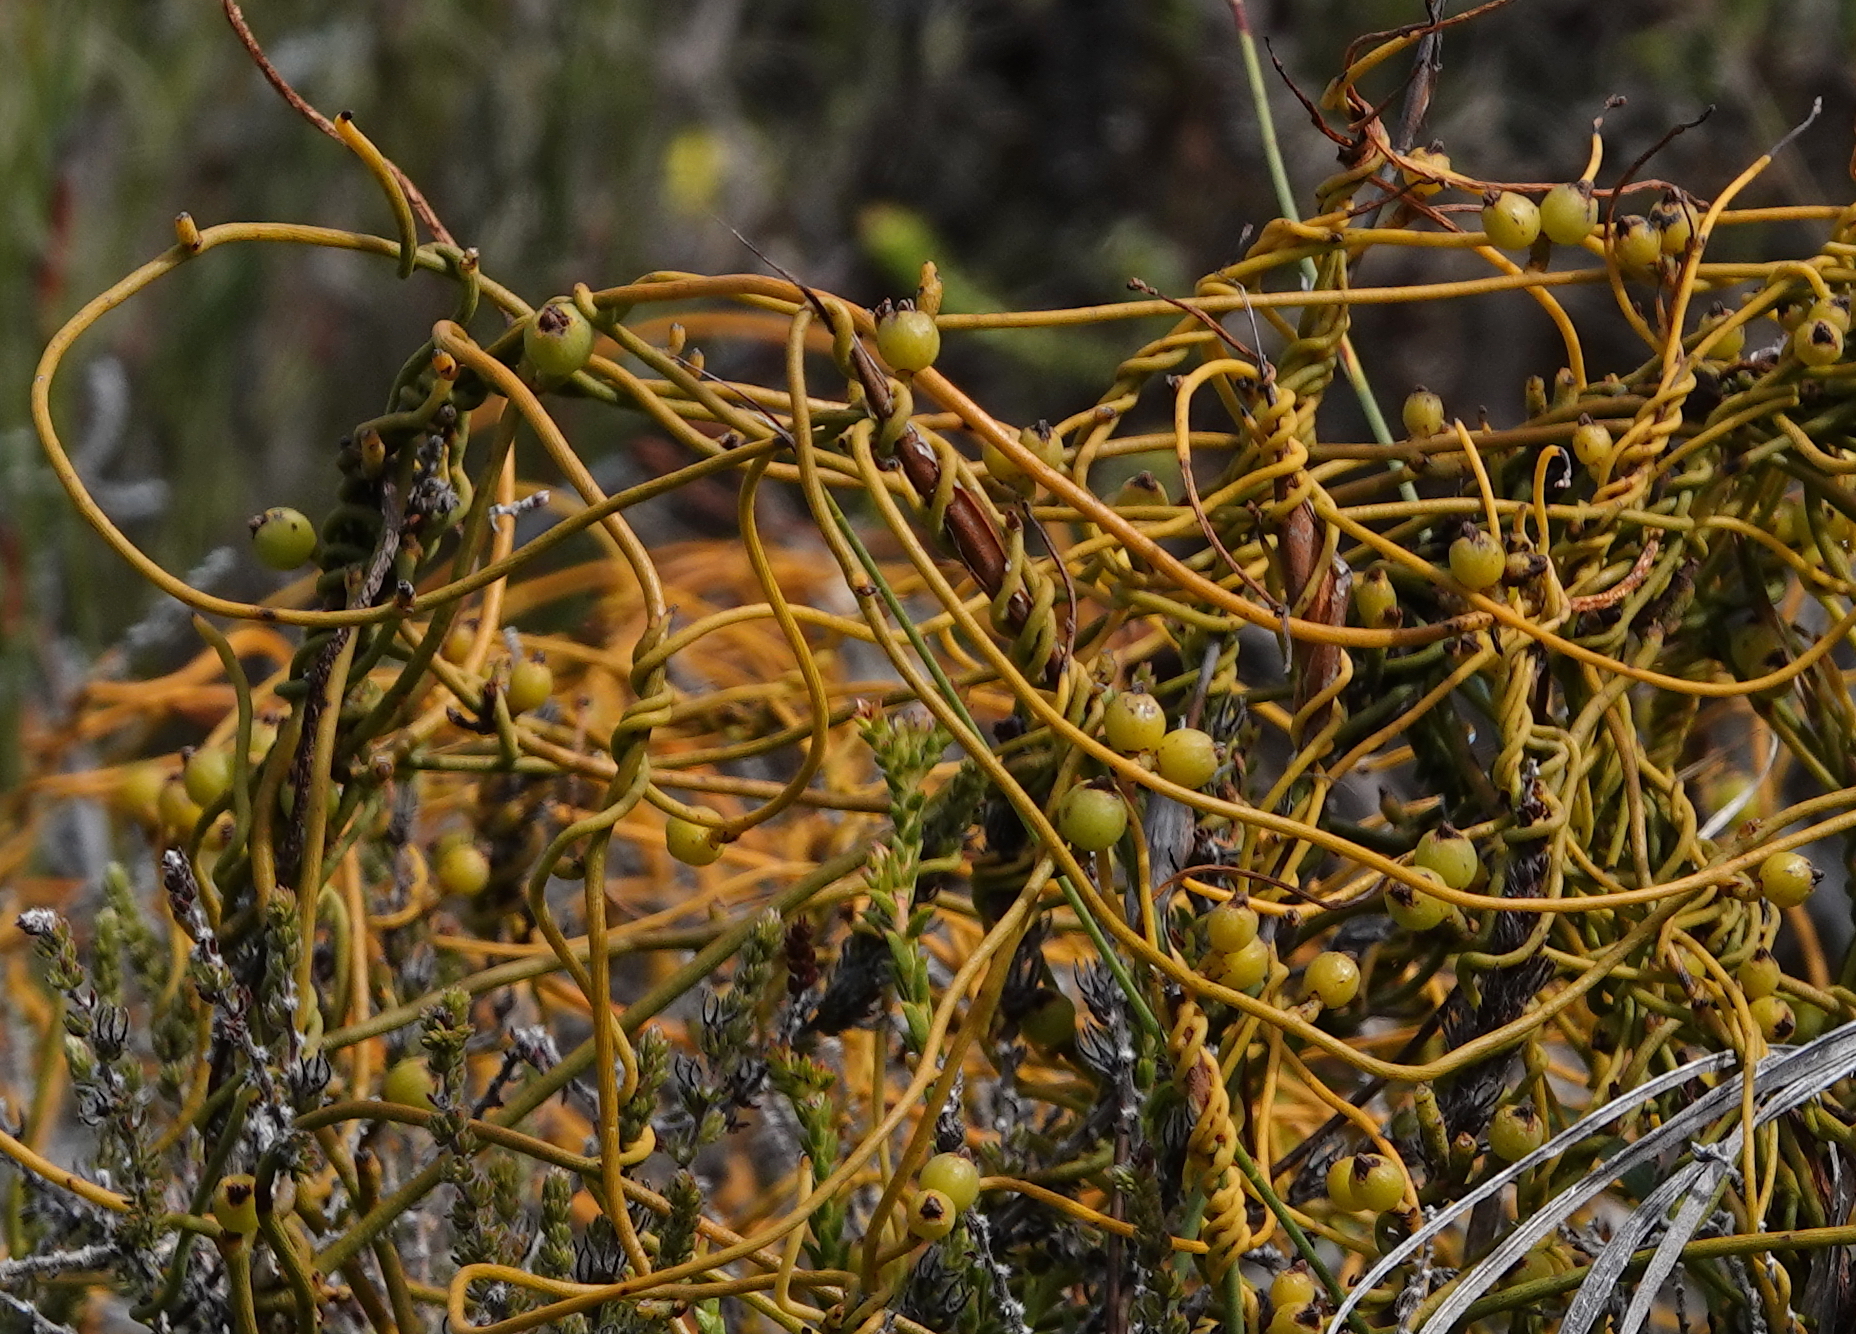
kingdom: Plantae
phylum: Tracheophyta
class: Magnoliopsida
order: Laurales
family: Lauraceae
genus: Cassytha
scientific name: Cassytha ciliolata
